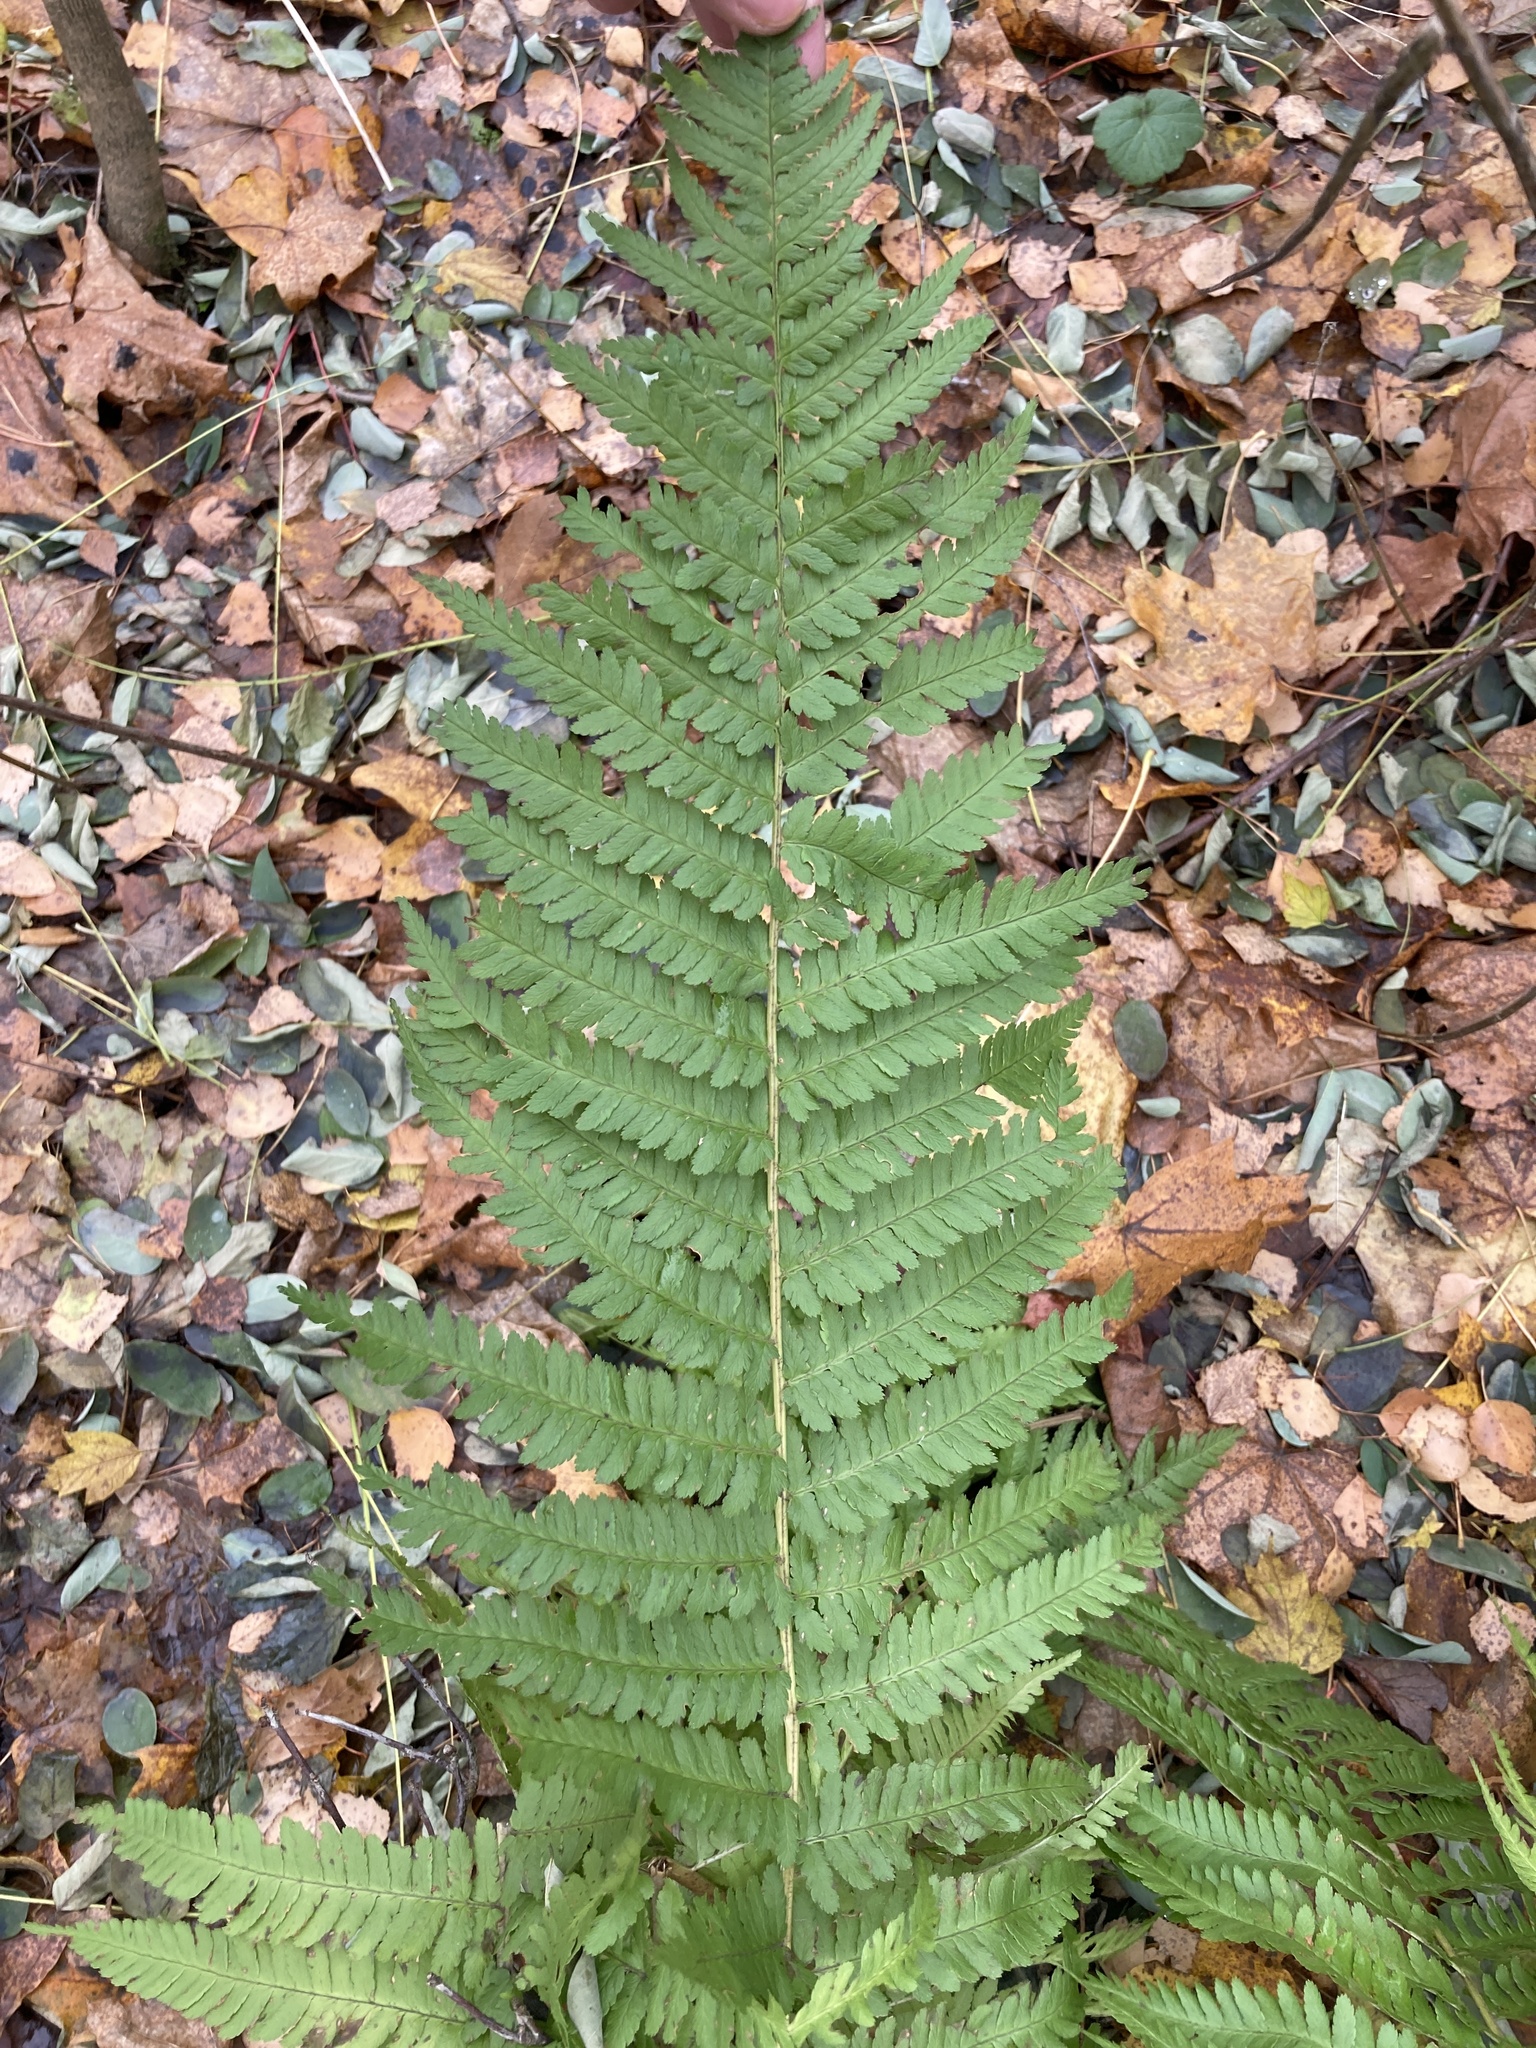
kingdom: Plantae
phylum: Tracheophyta
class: Polypodiopsida
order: Polypodiales
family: Dryopteridaceae
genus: Dryopteris
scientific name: Dryopteris filix-mas
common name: Male fern
